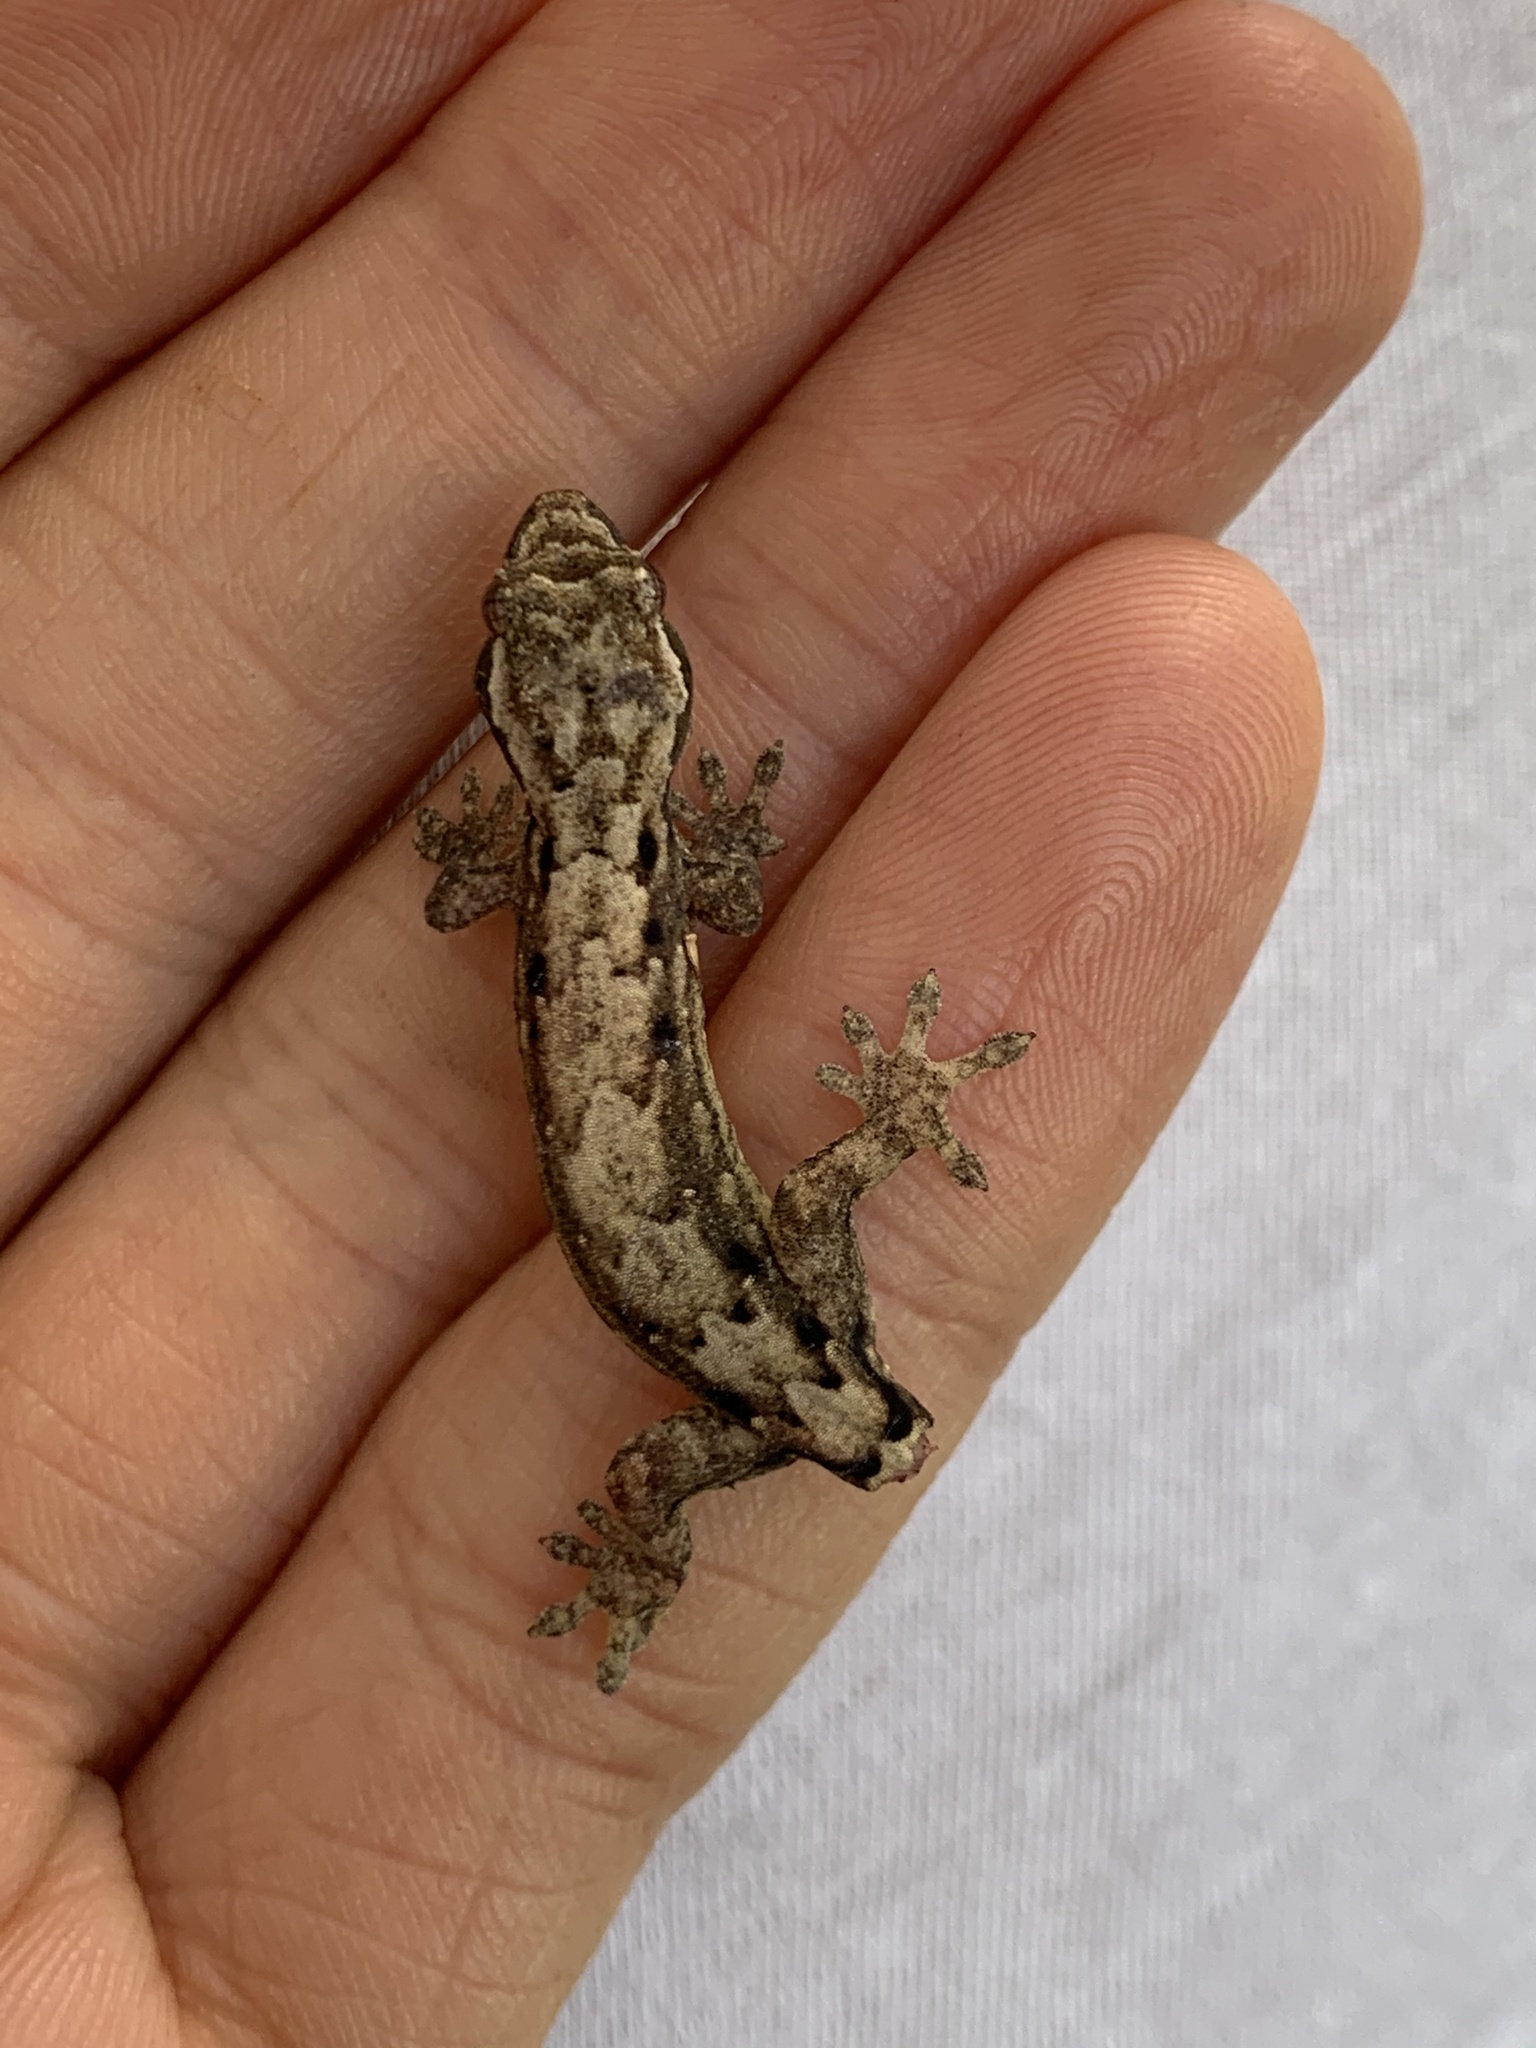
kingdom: Animalia
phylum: Chordata
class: Squamata
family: Gekkonidae
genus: Lepidodactylus
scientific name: Lepidodactylus lugubris
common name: Mourning gecko
